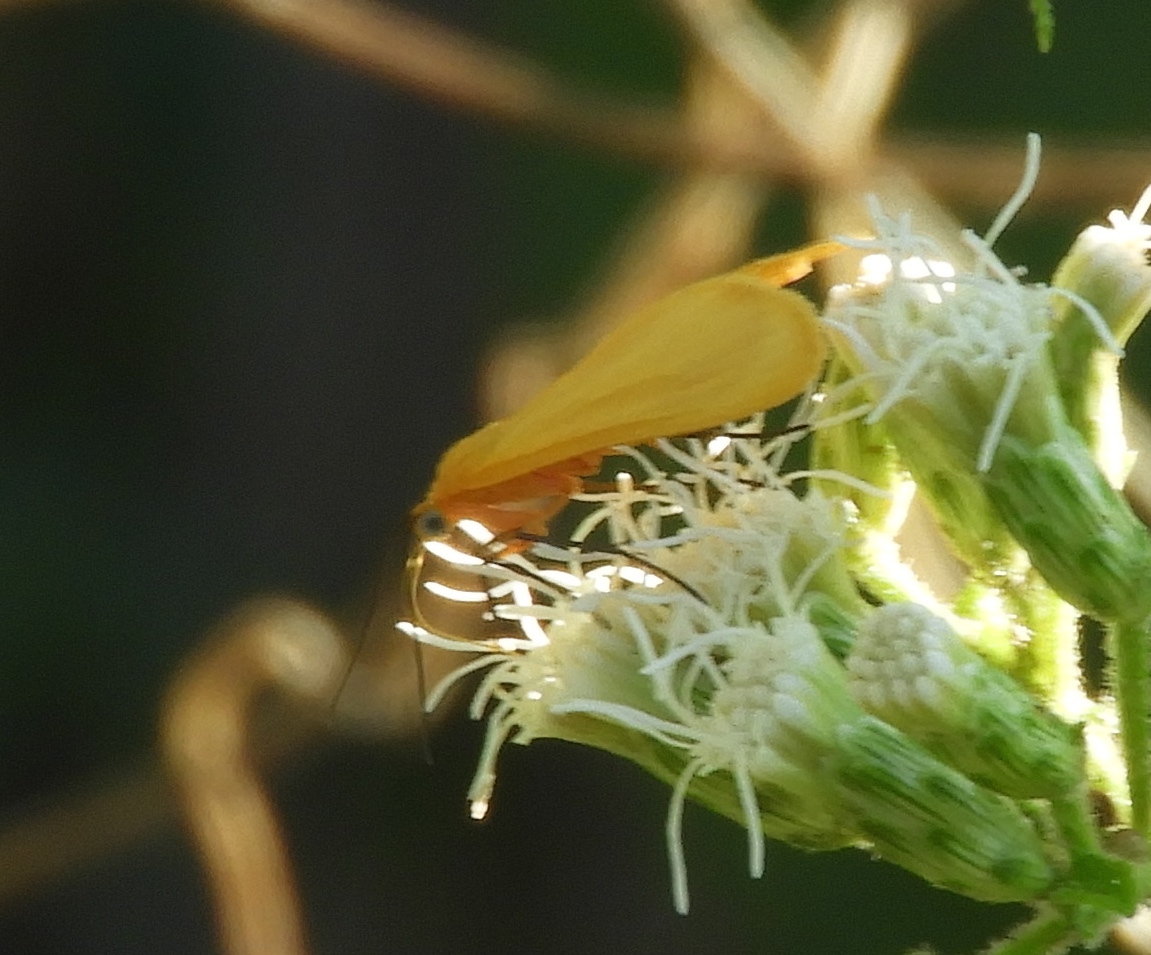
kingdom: Animalia
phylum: Arthropoda
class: Insecta
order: Lepidoptera
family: Geometridae
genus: Eubaphe
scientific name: Eubaphe unicolor
